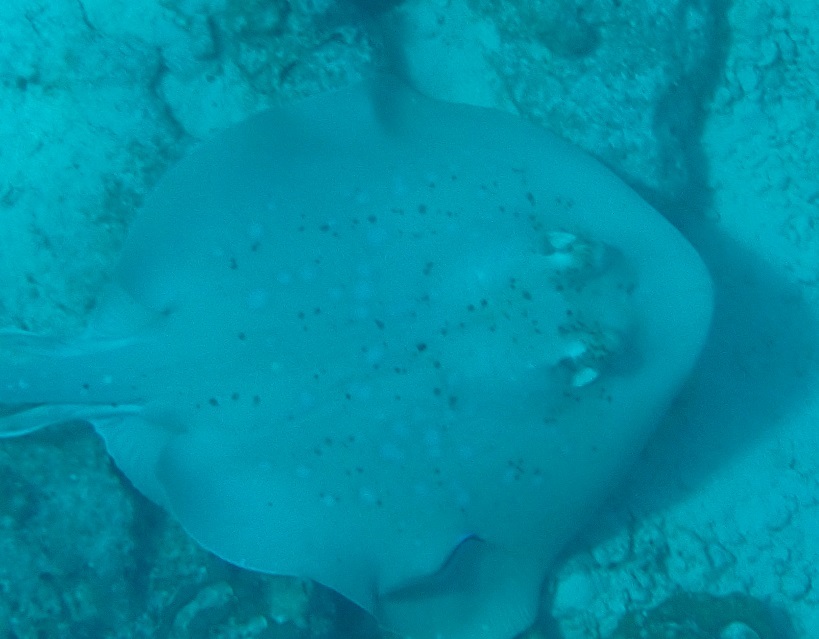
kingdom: Animalia
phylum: Chordata
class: Elasmobranchii
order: Myliobatiformes
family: Dasyatidae
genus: Neotrygon
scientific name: Neotrygon kuhlii
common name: Bluespotted stingray
